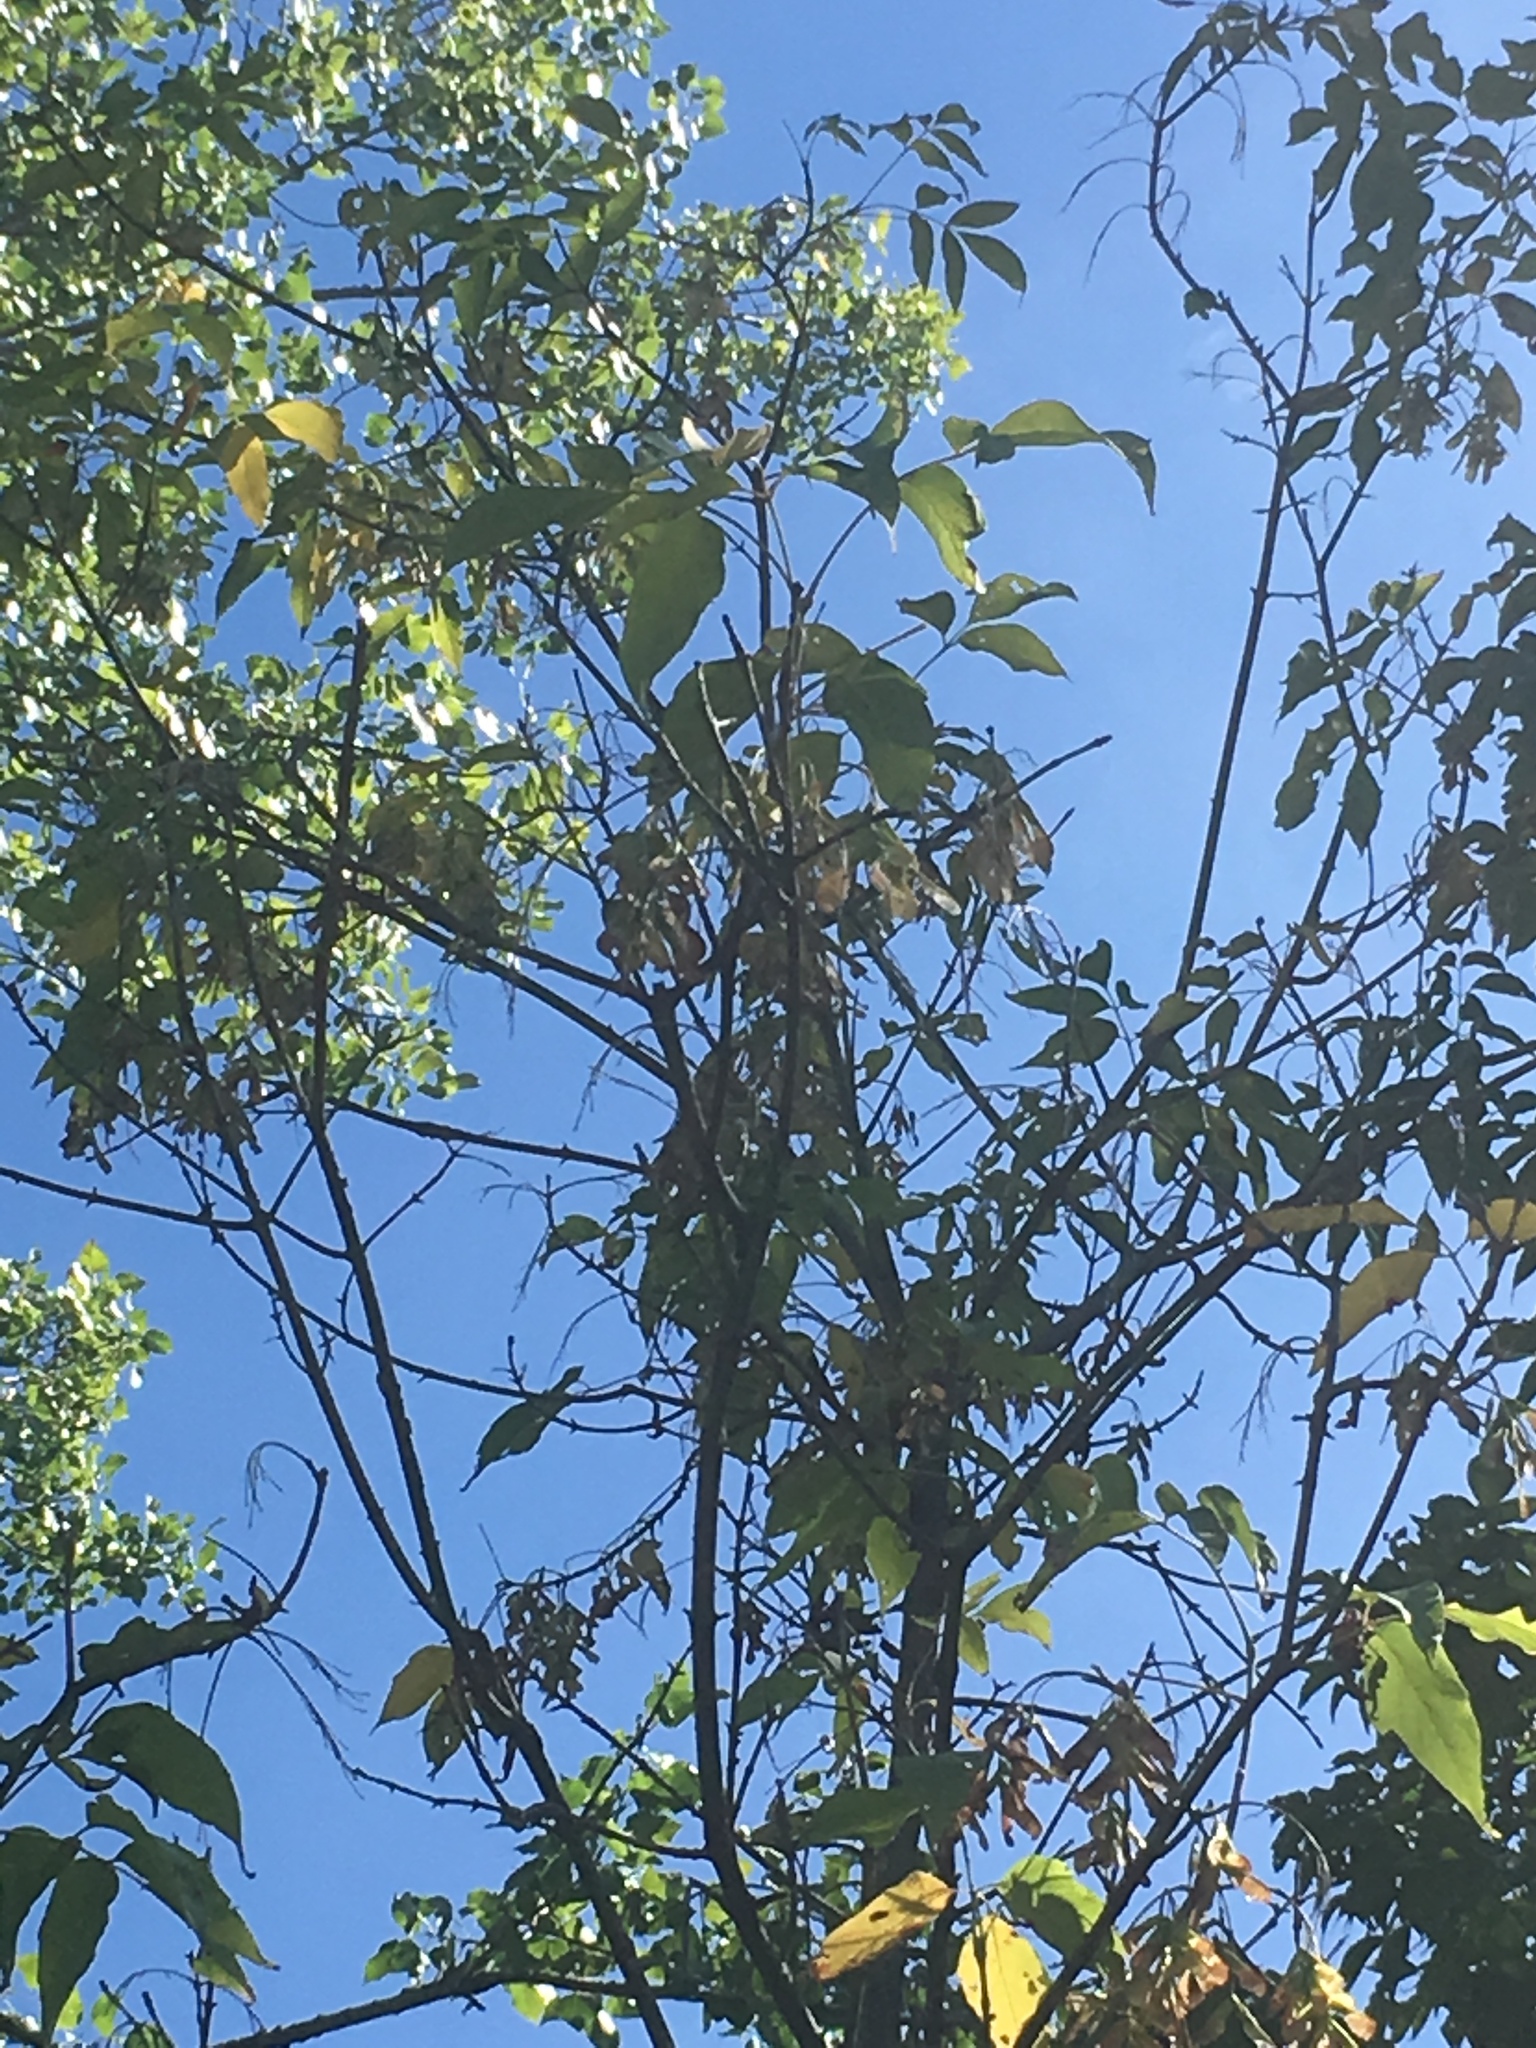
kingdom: Plantae
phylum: Tracheophyta
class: Magnoliopsida
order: Sapindales
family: Sapindaceae
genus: Acer
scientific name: Acer negundo
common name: Ashleaf maple
